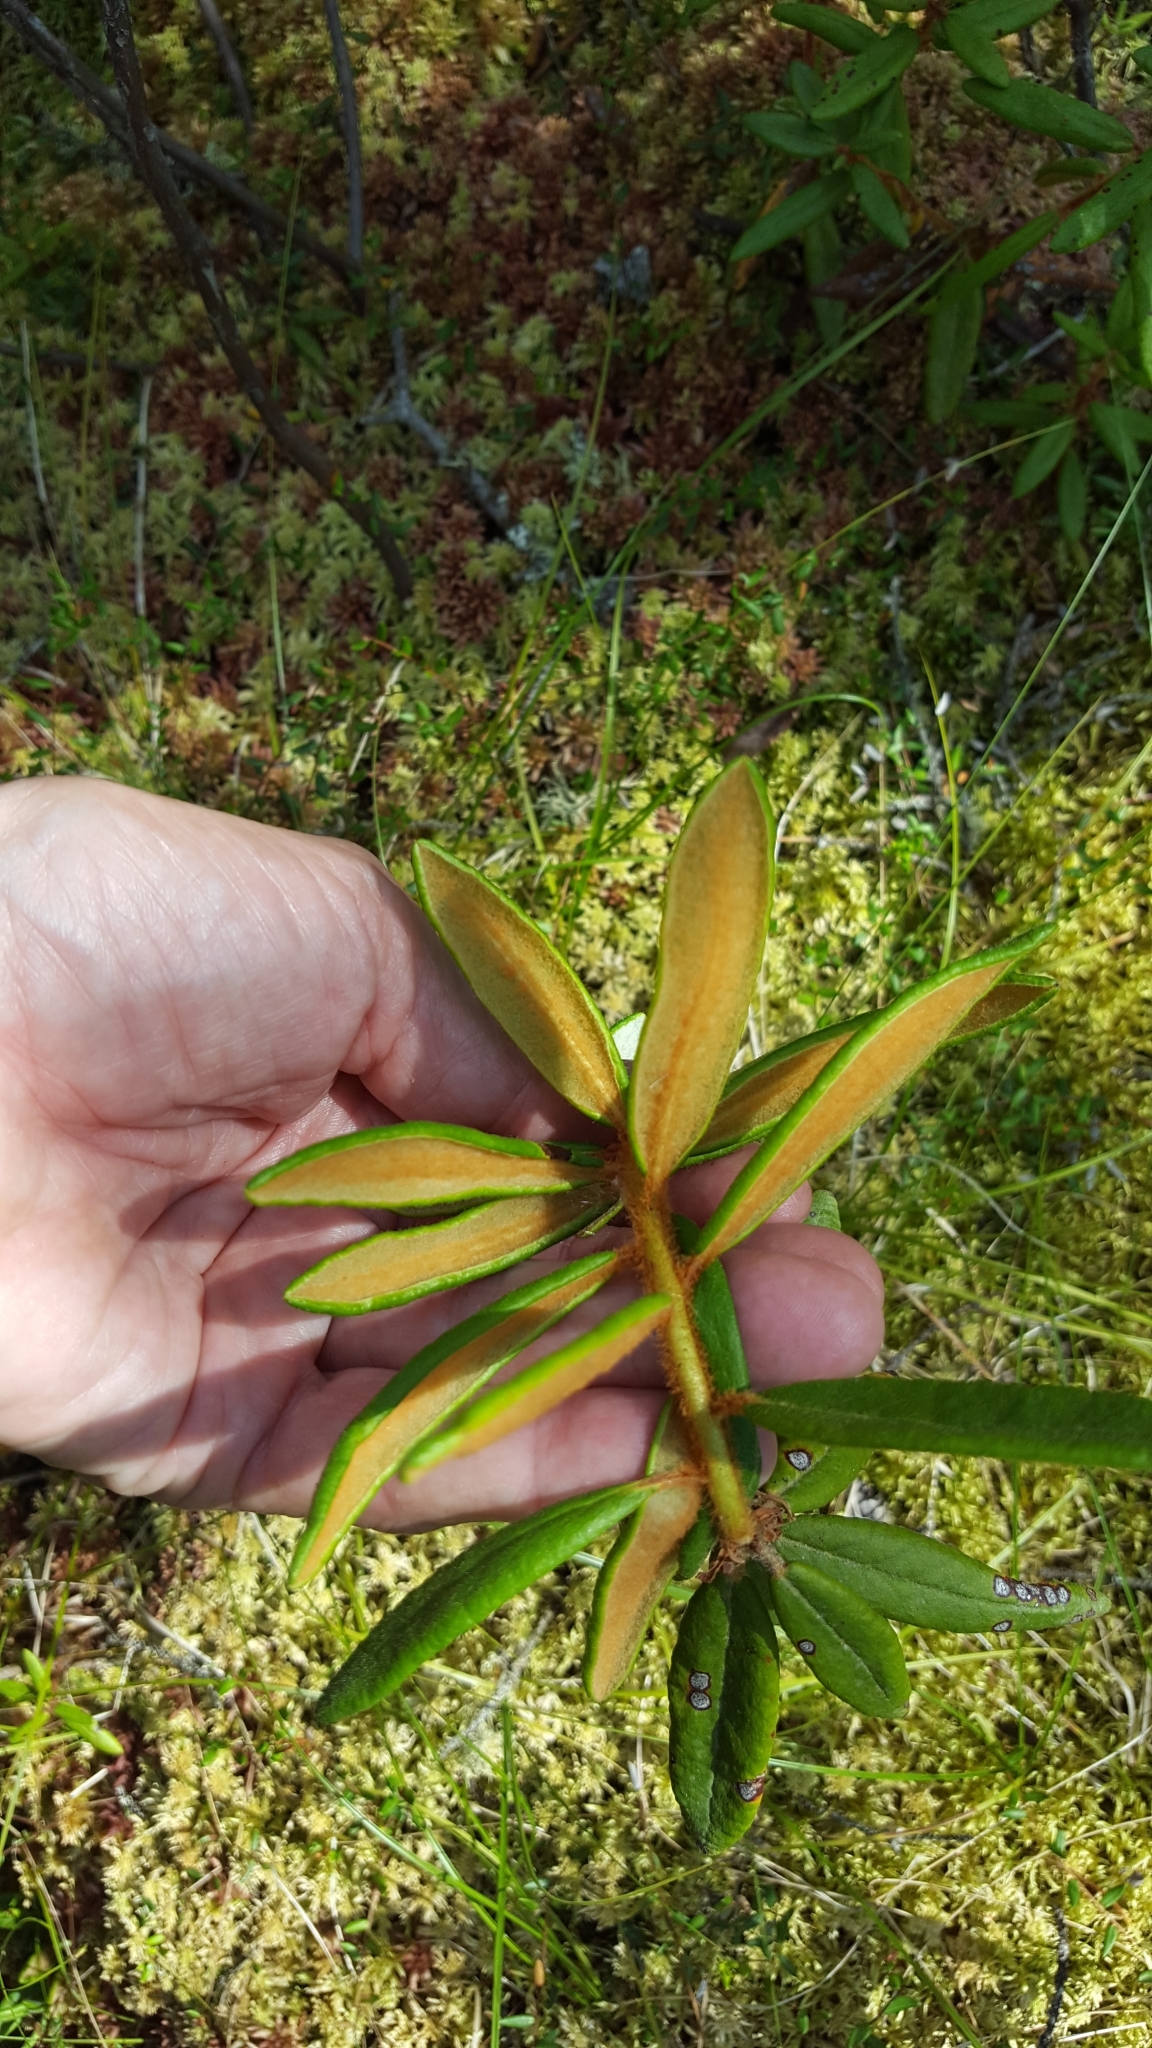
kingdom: Plantae
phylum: Tracheophyta
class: Magnoliopsida
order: Ericales
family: Ericaceae
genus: Rhododendron
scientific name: Rhododendron groenlandicum
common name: Bog labrador tea
